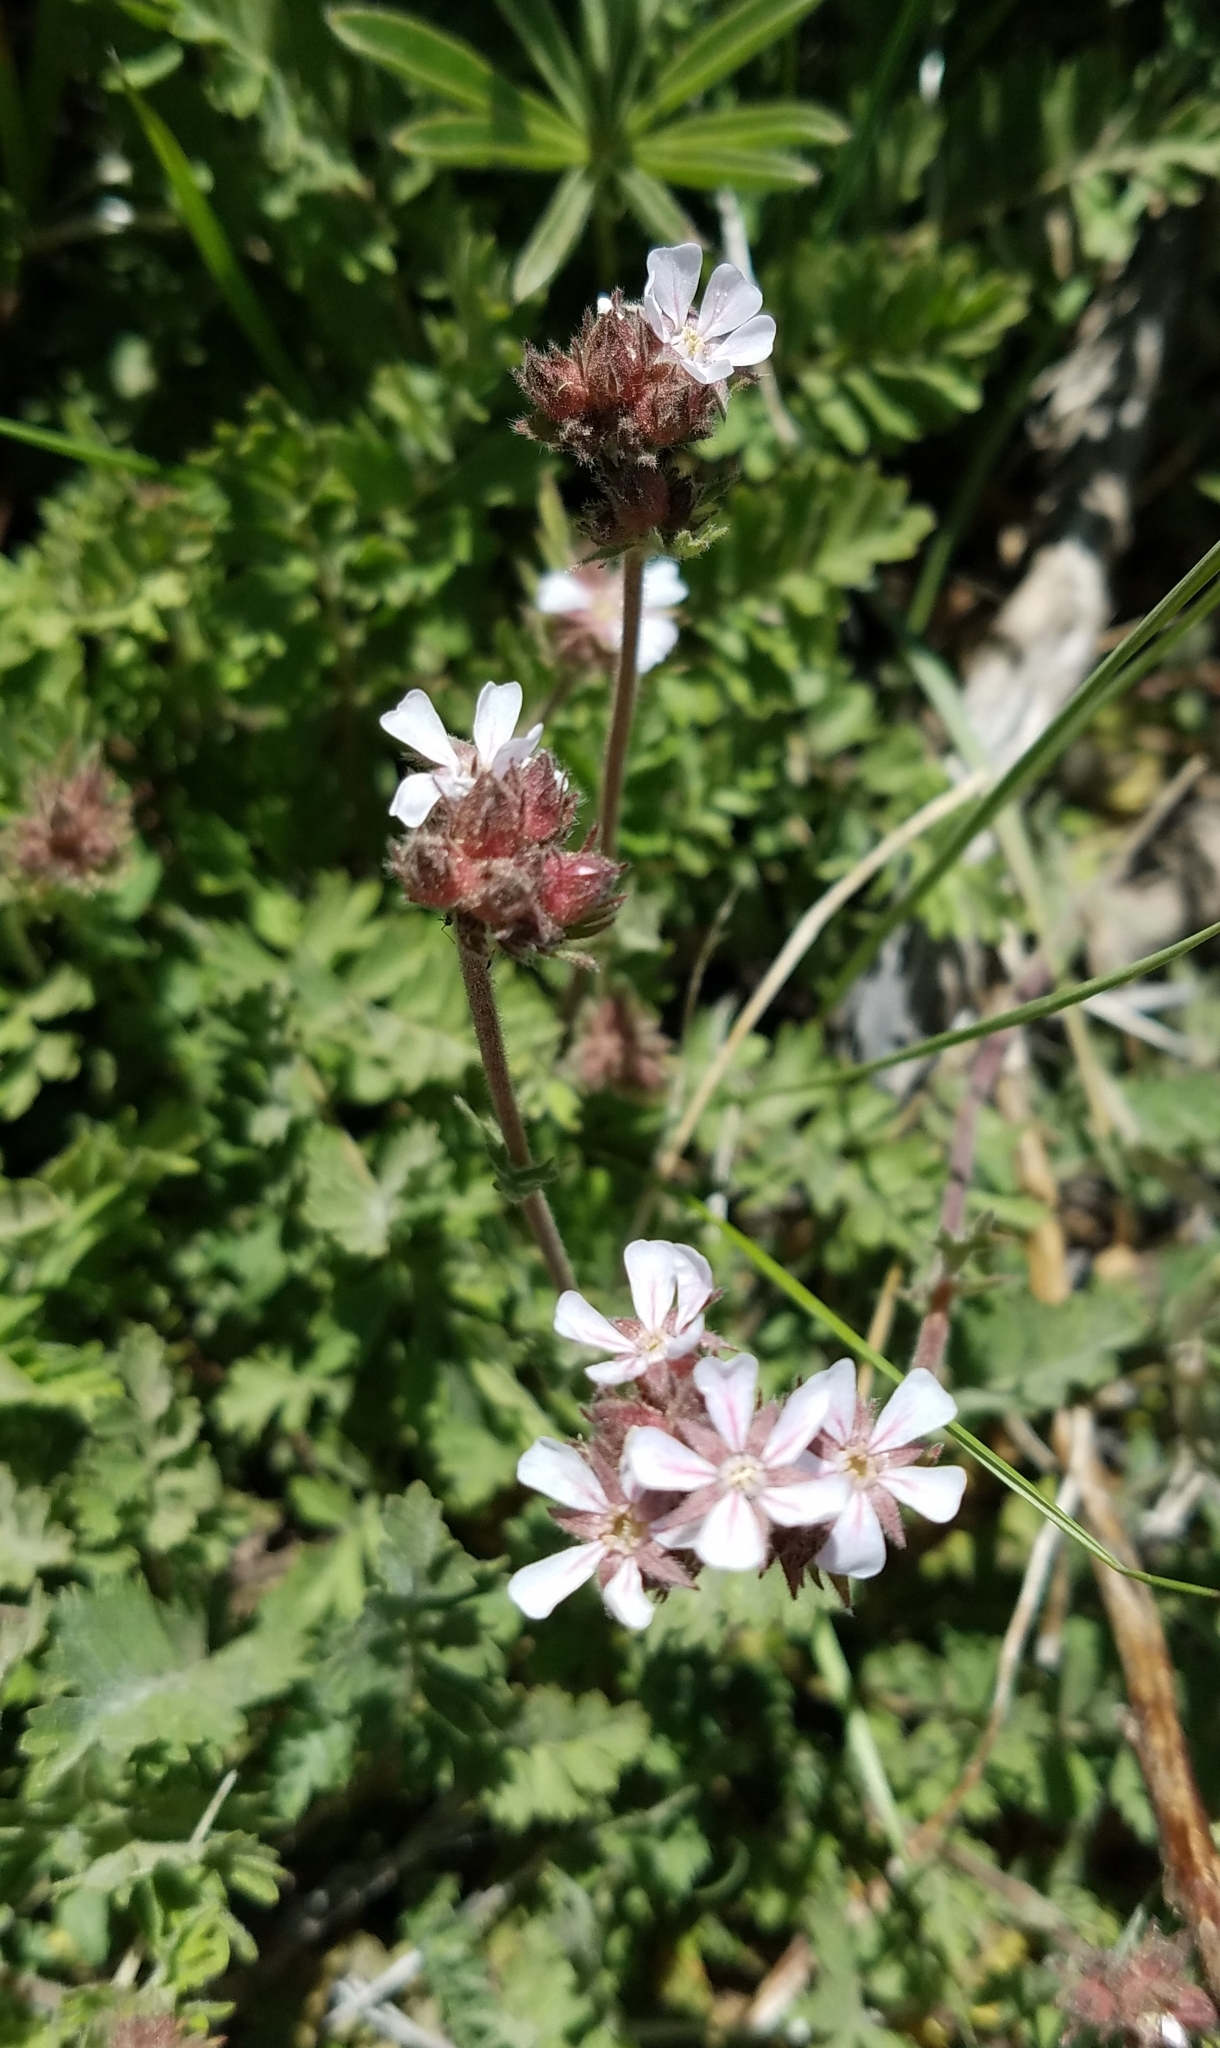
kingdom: Plantae
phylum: Tracheophyta
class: Magnoliopsida
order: Rosales
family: Rosaceae
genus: Potentilla
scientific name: Potentilla douglasii
